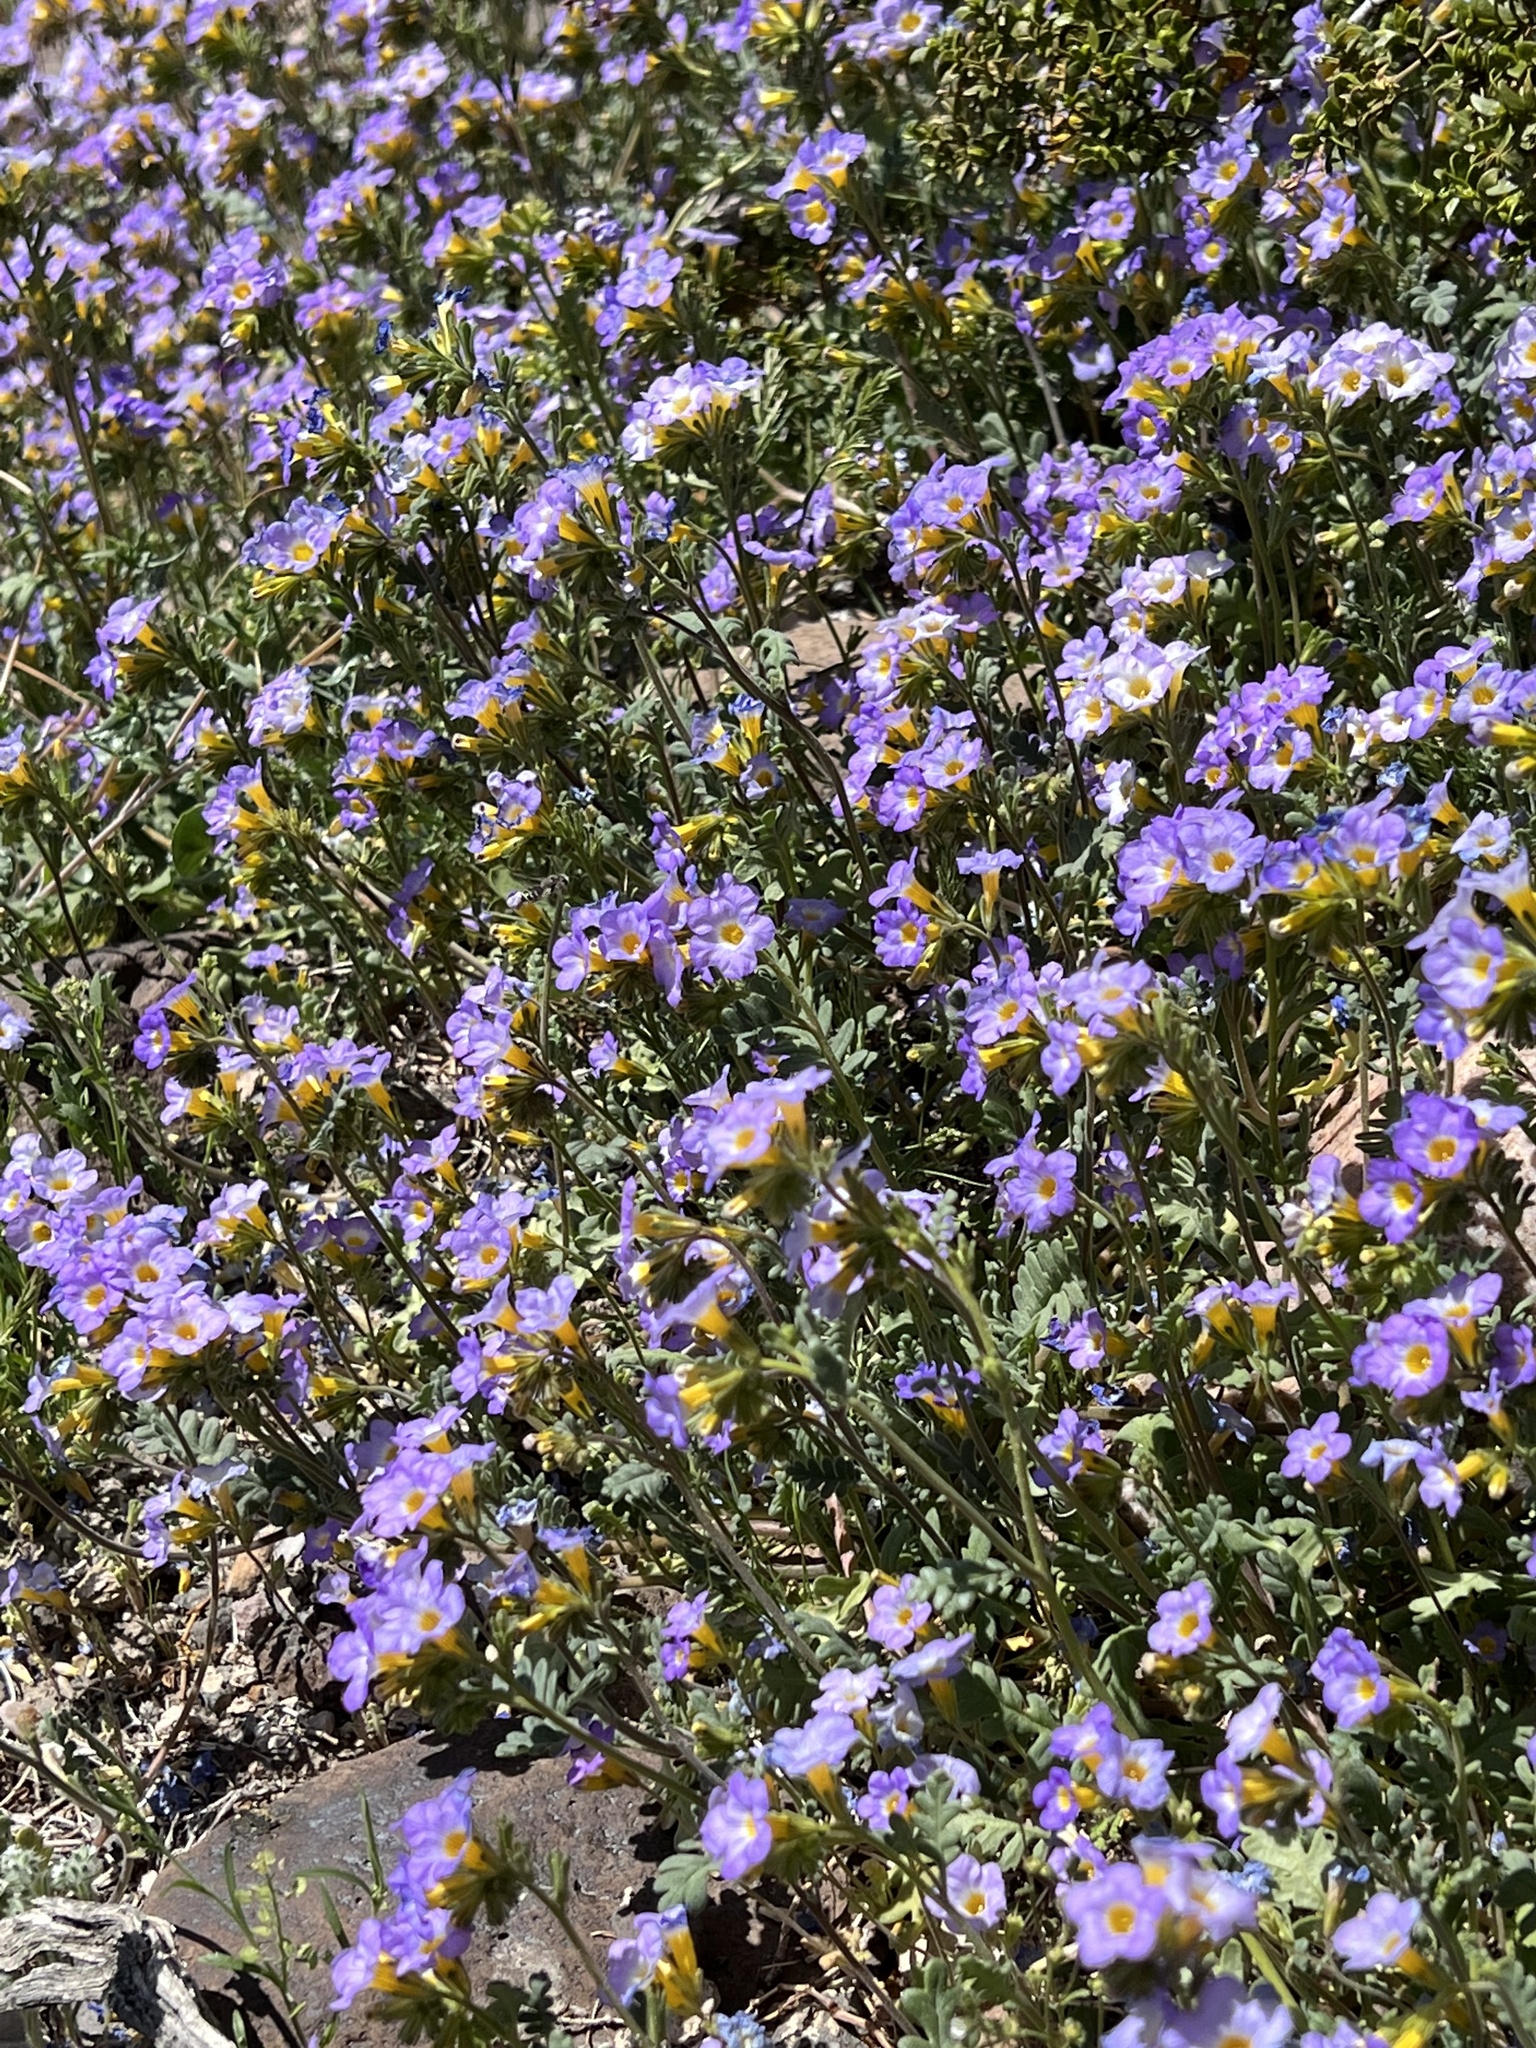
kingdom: Plantae
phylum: Tracheophyta
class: Magnoliopsida
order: Boraginales
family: Hydrophyllaceae
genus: Phacelia
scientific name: Phacelia fremontii
